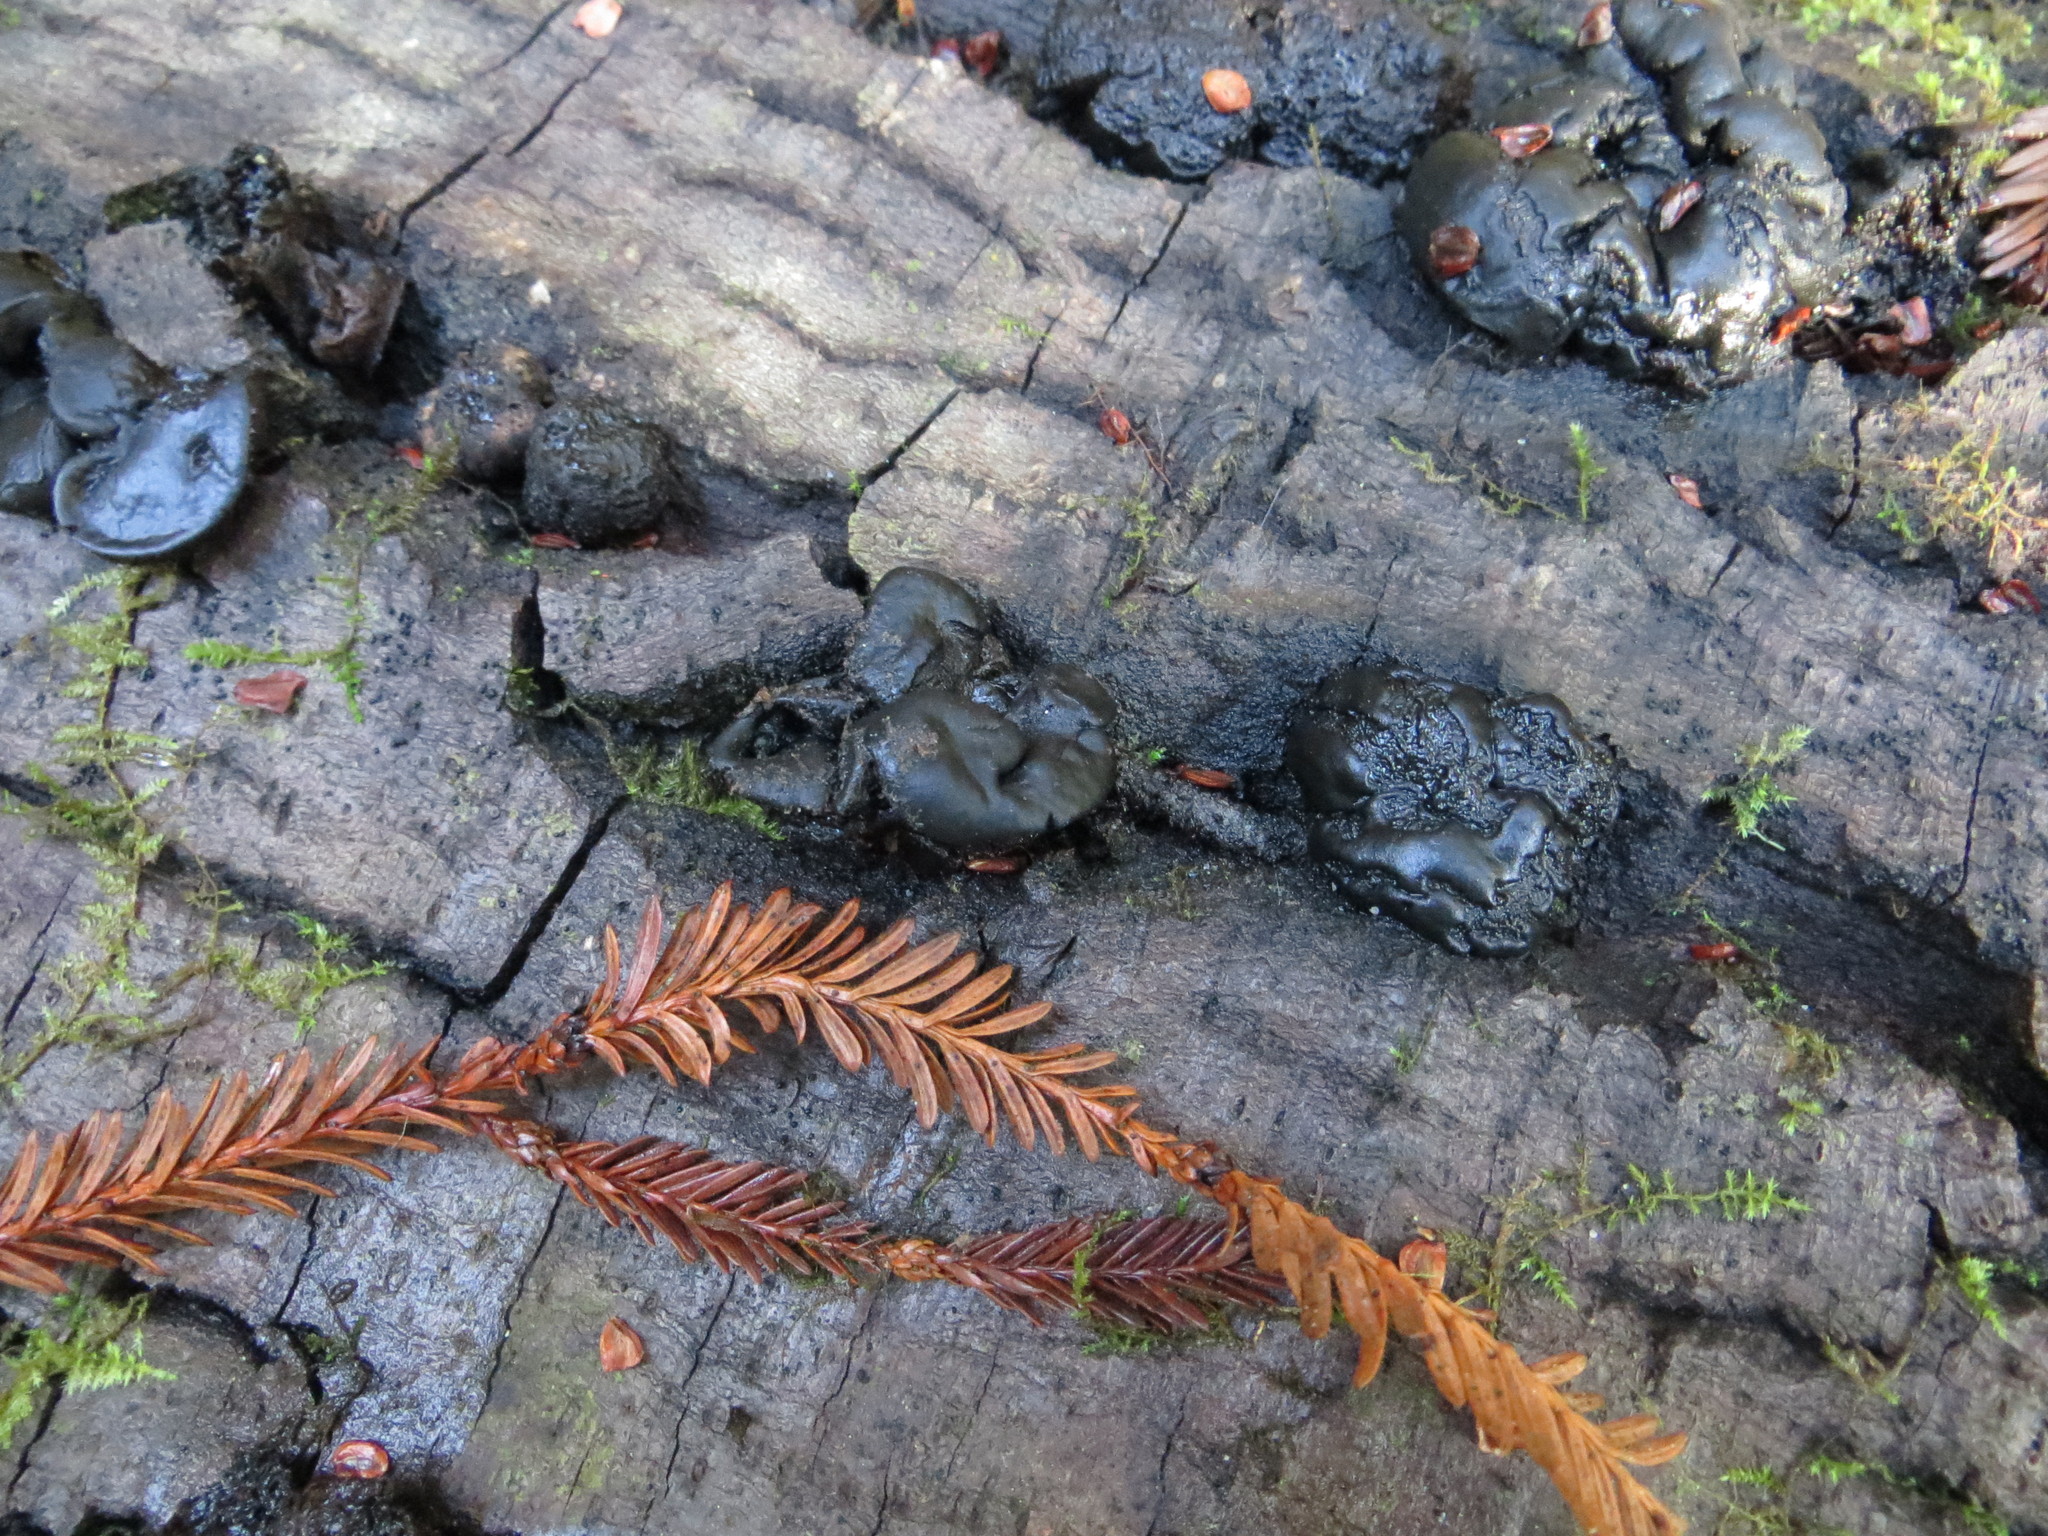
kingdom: Fungi
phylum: Ascomycota
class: Leotiomycetes
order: Phacidiales
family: Phacidiaceae
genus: Bulgaria
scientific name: Bulgaria inquinans
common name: Black bulgar
